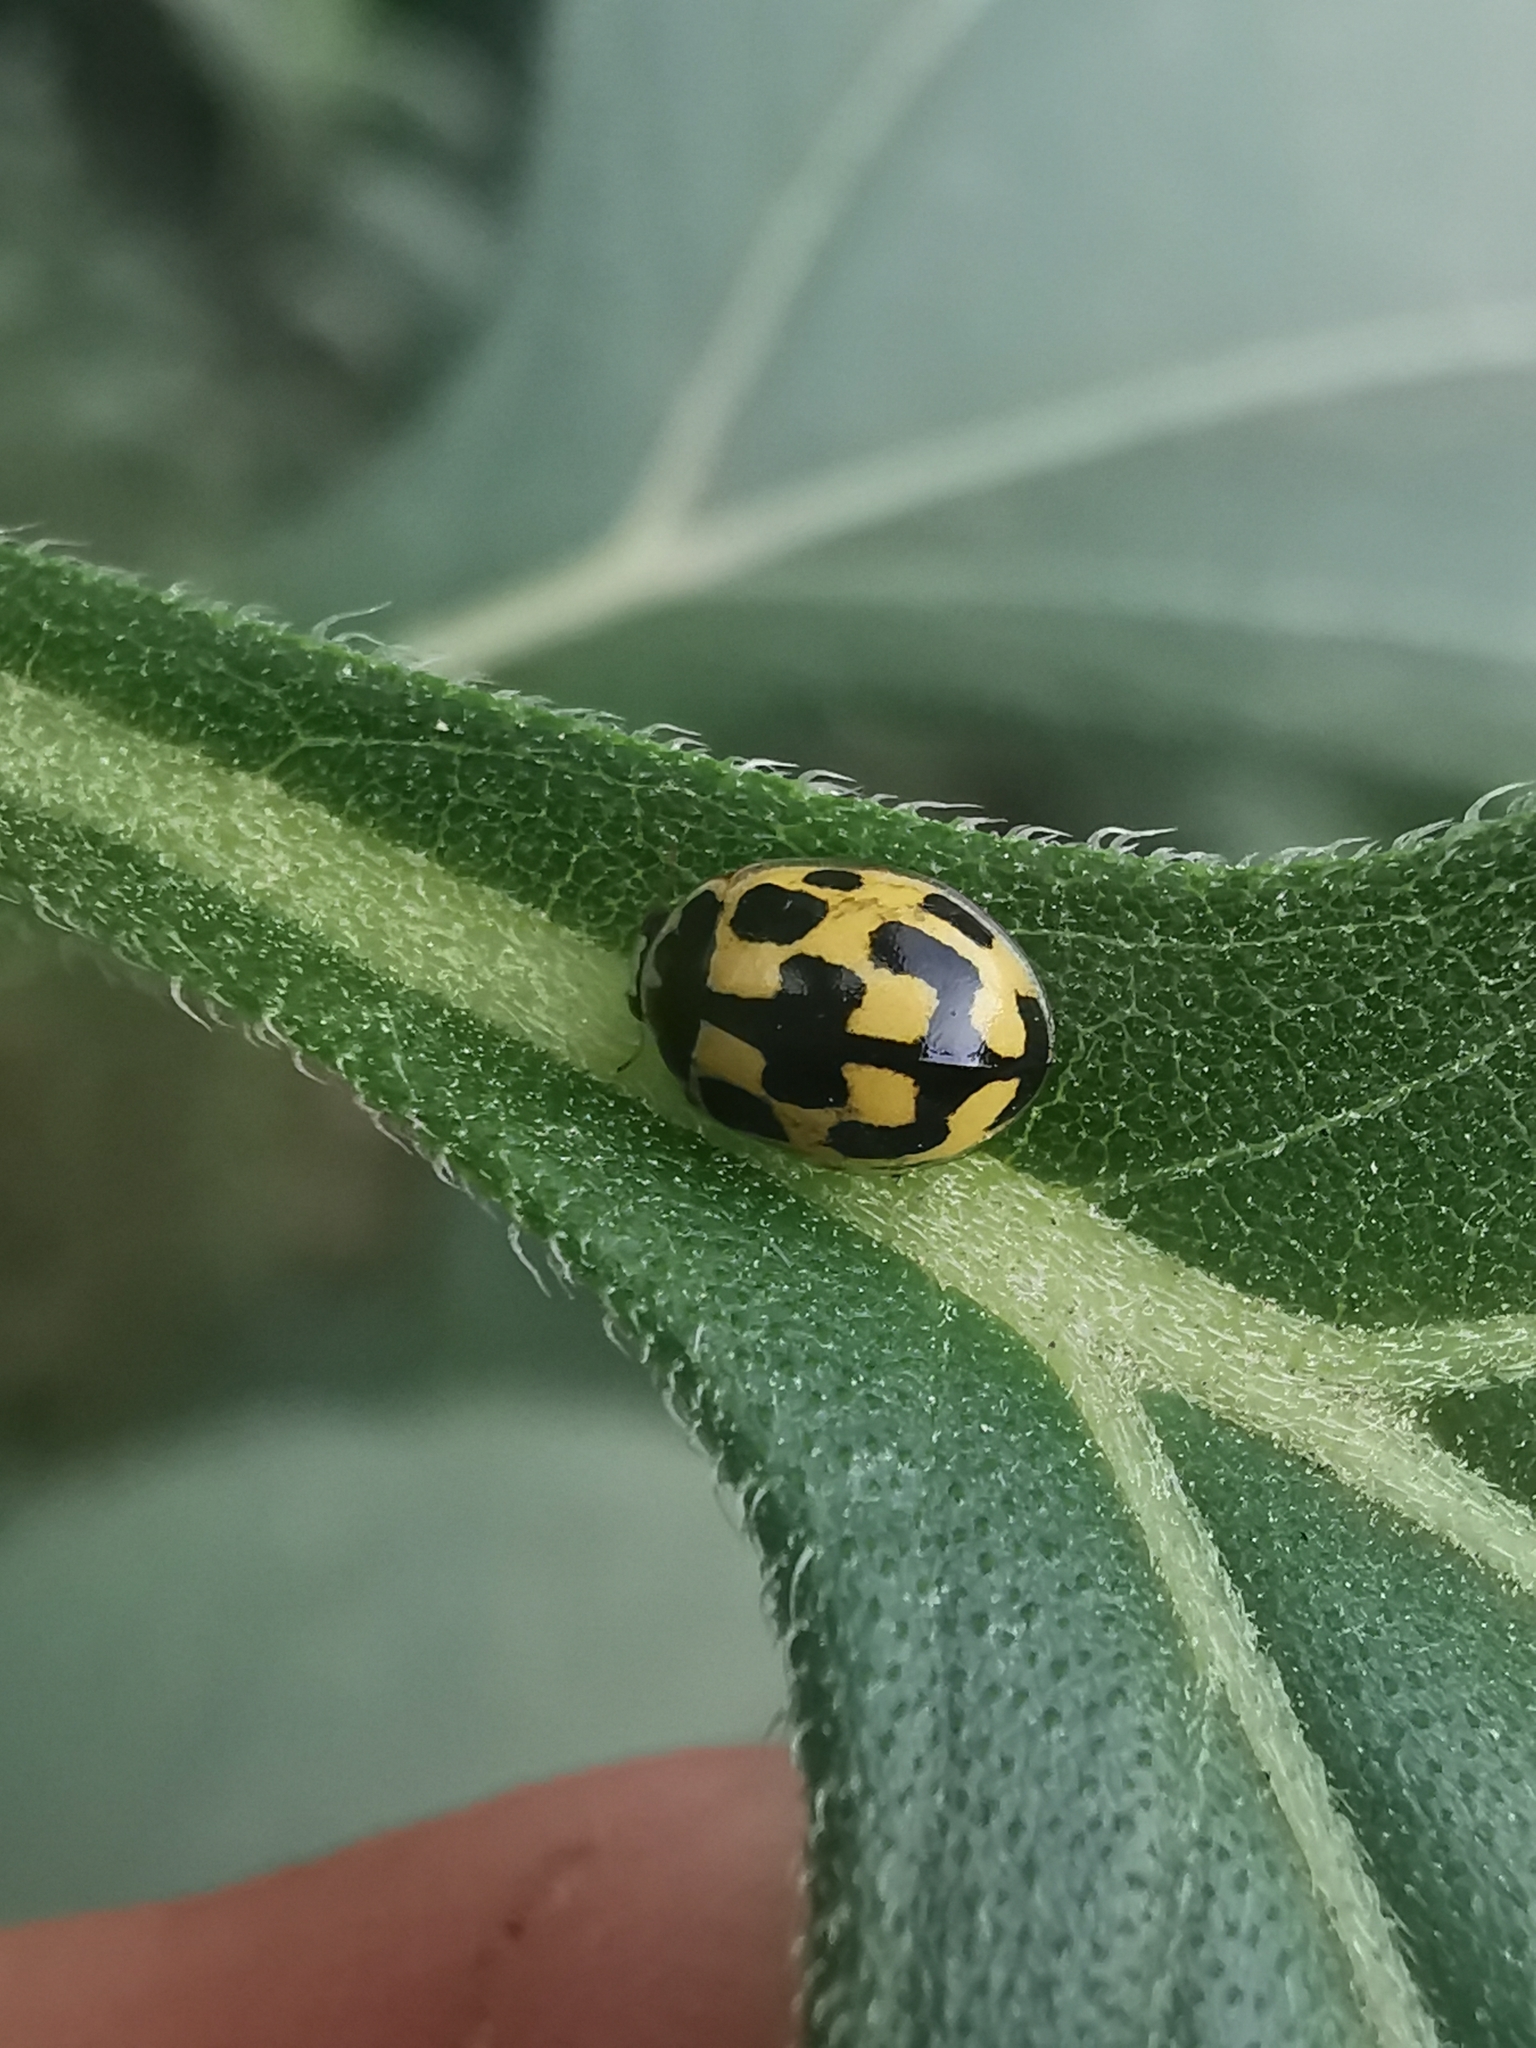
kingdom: Animalia
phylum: Arthropoda
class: Insecta
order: Coleoptera
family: Coccinellidae
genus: Propylaea
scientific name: Propylaea quatuordecimpunctata
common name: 14-spotted ladybird beetle
